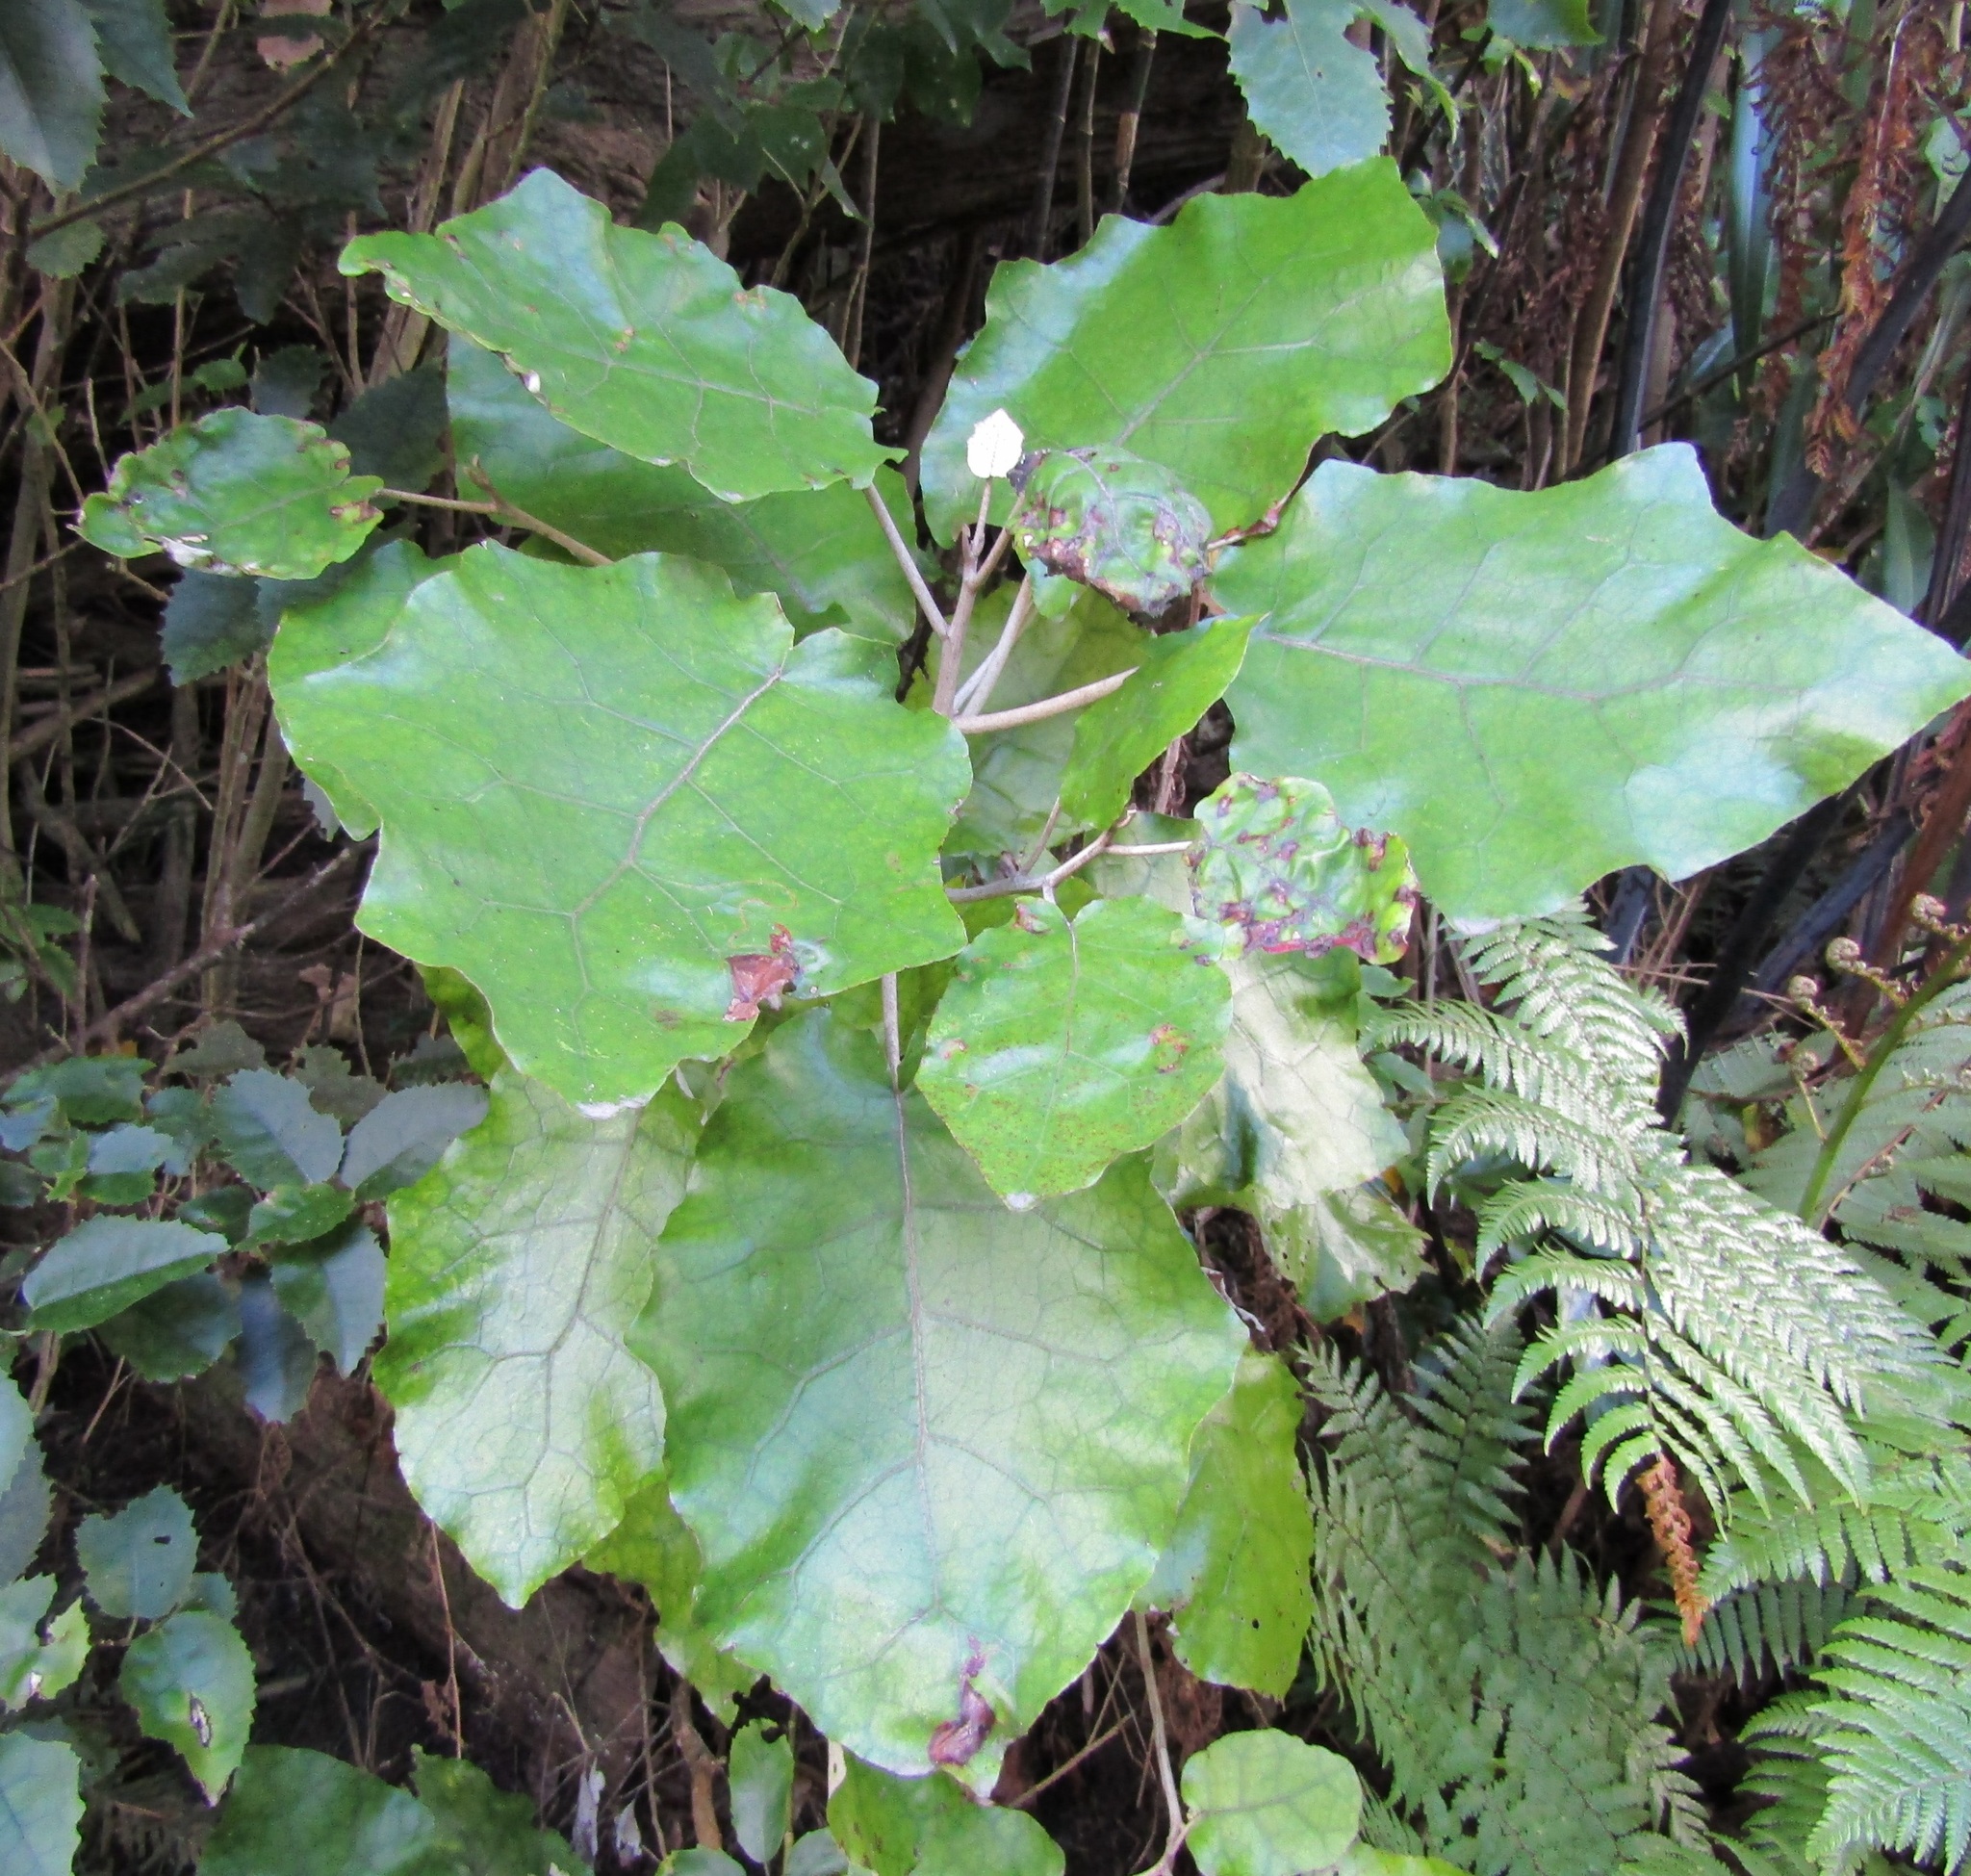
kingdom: Plantae
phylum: Tracheophyta
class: Magnoliopsida
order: Asterales
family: Asteraceae
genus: Brachyglottis
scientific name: Brachyglottis repanda
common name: Hedge ragwort
